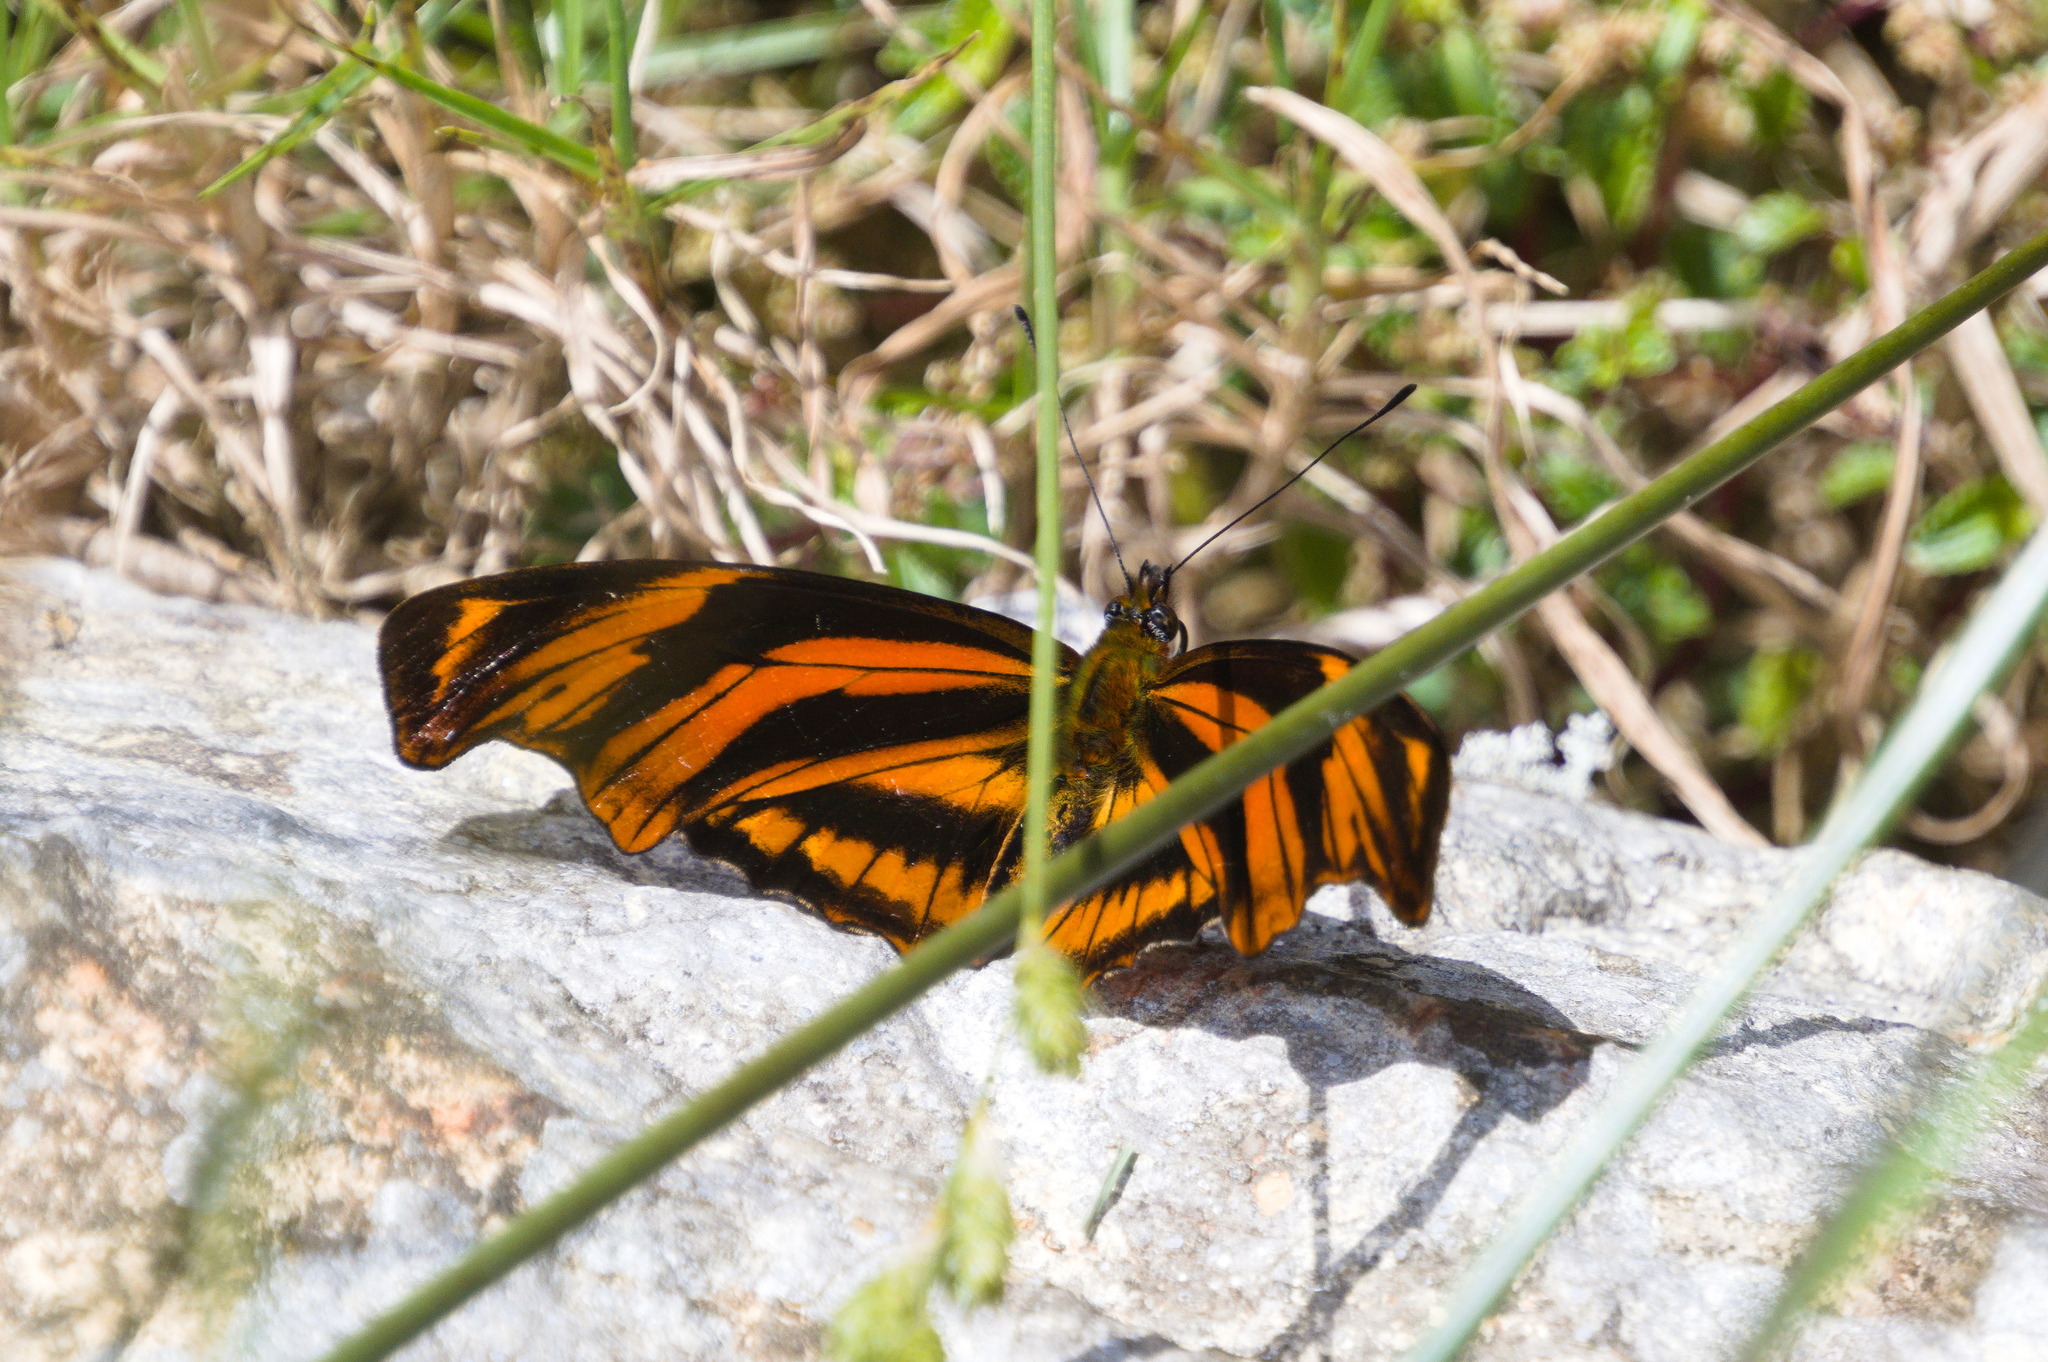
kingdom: Animalia
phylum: Arthropoda
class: Insecta
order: Lepidoptera
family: Nymphalidae
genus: Podotricha
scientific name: Podotricha judith
